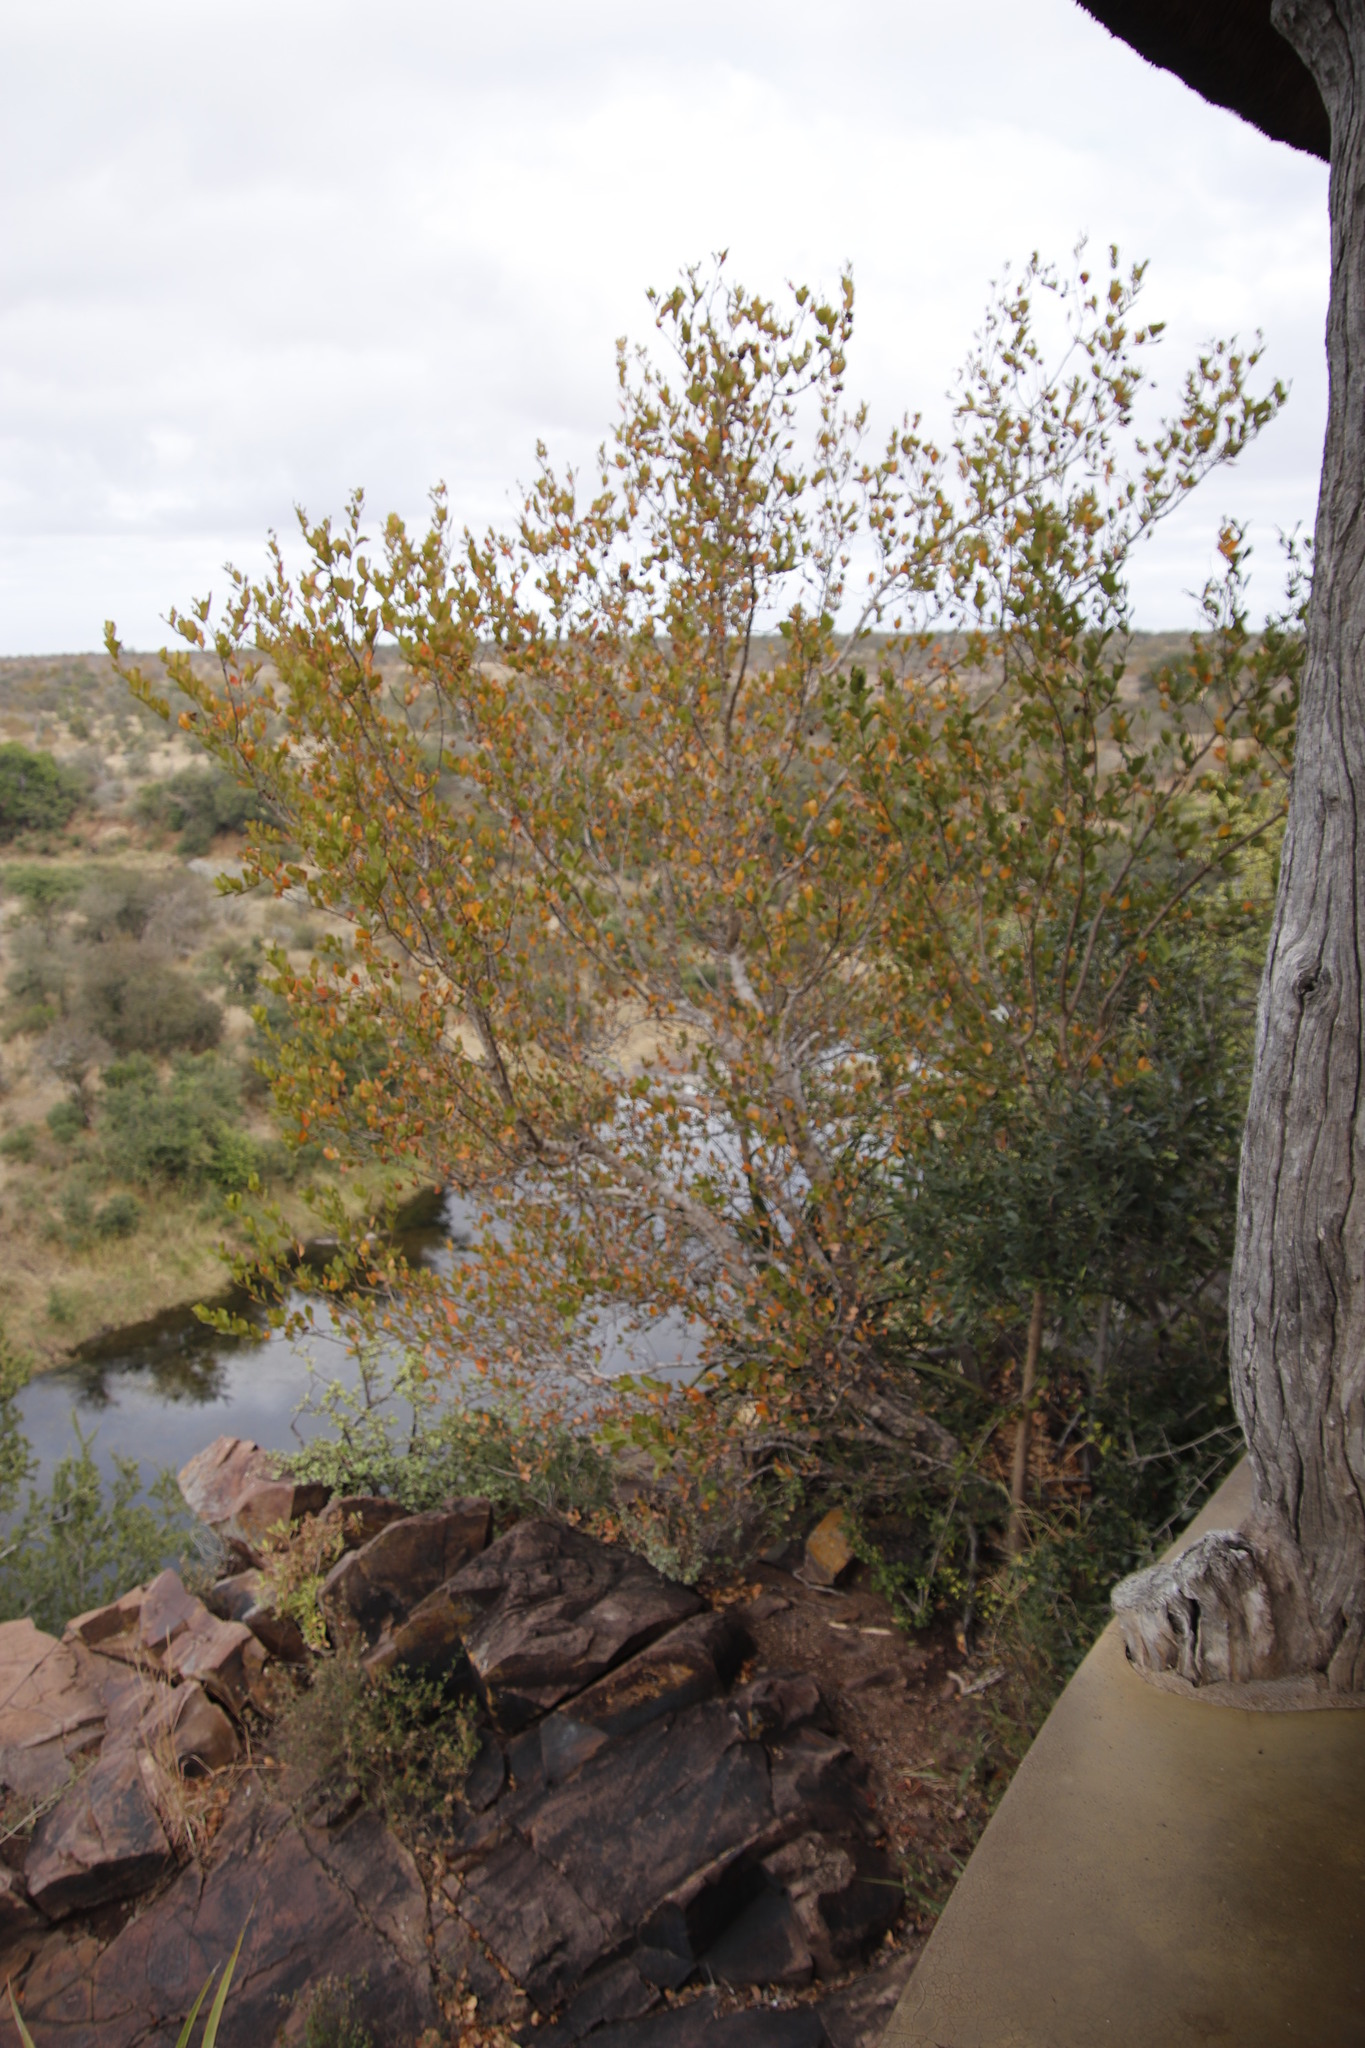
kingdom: Plantae
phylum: Tracheophyta
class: Magnoliopsida
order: Myrtales
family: Combretaceae
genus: Combretum
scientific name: Combretum apiculatum
